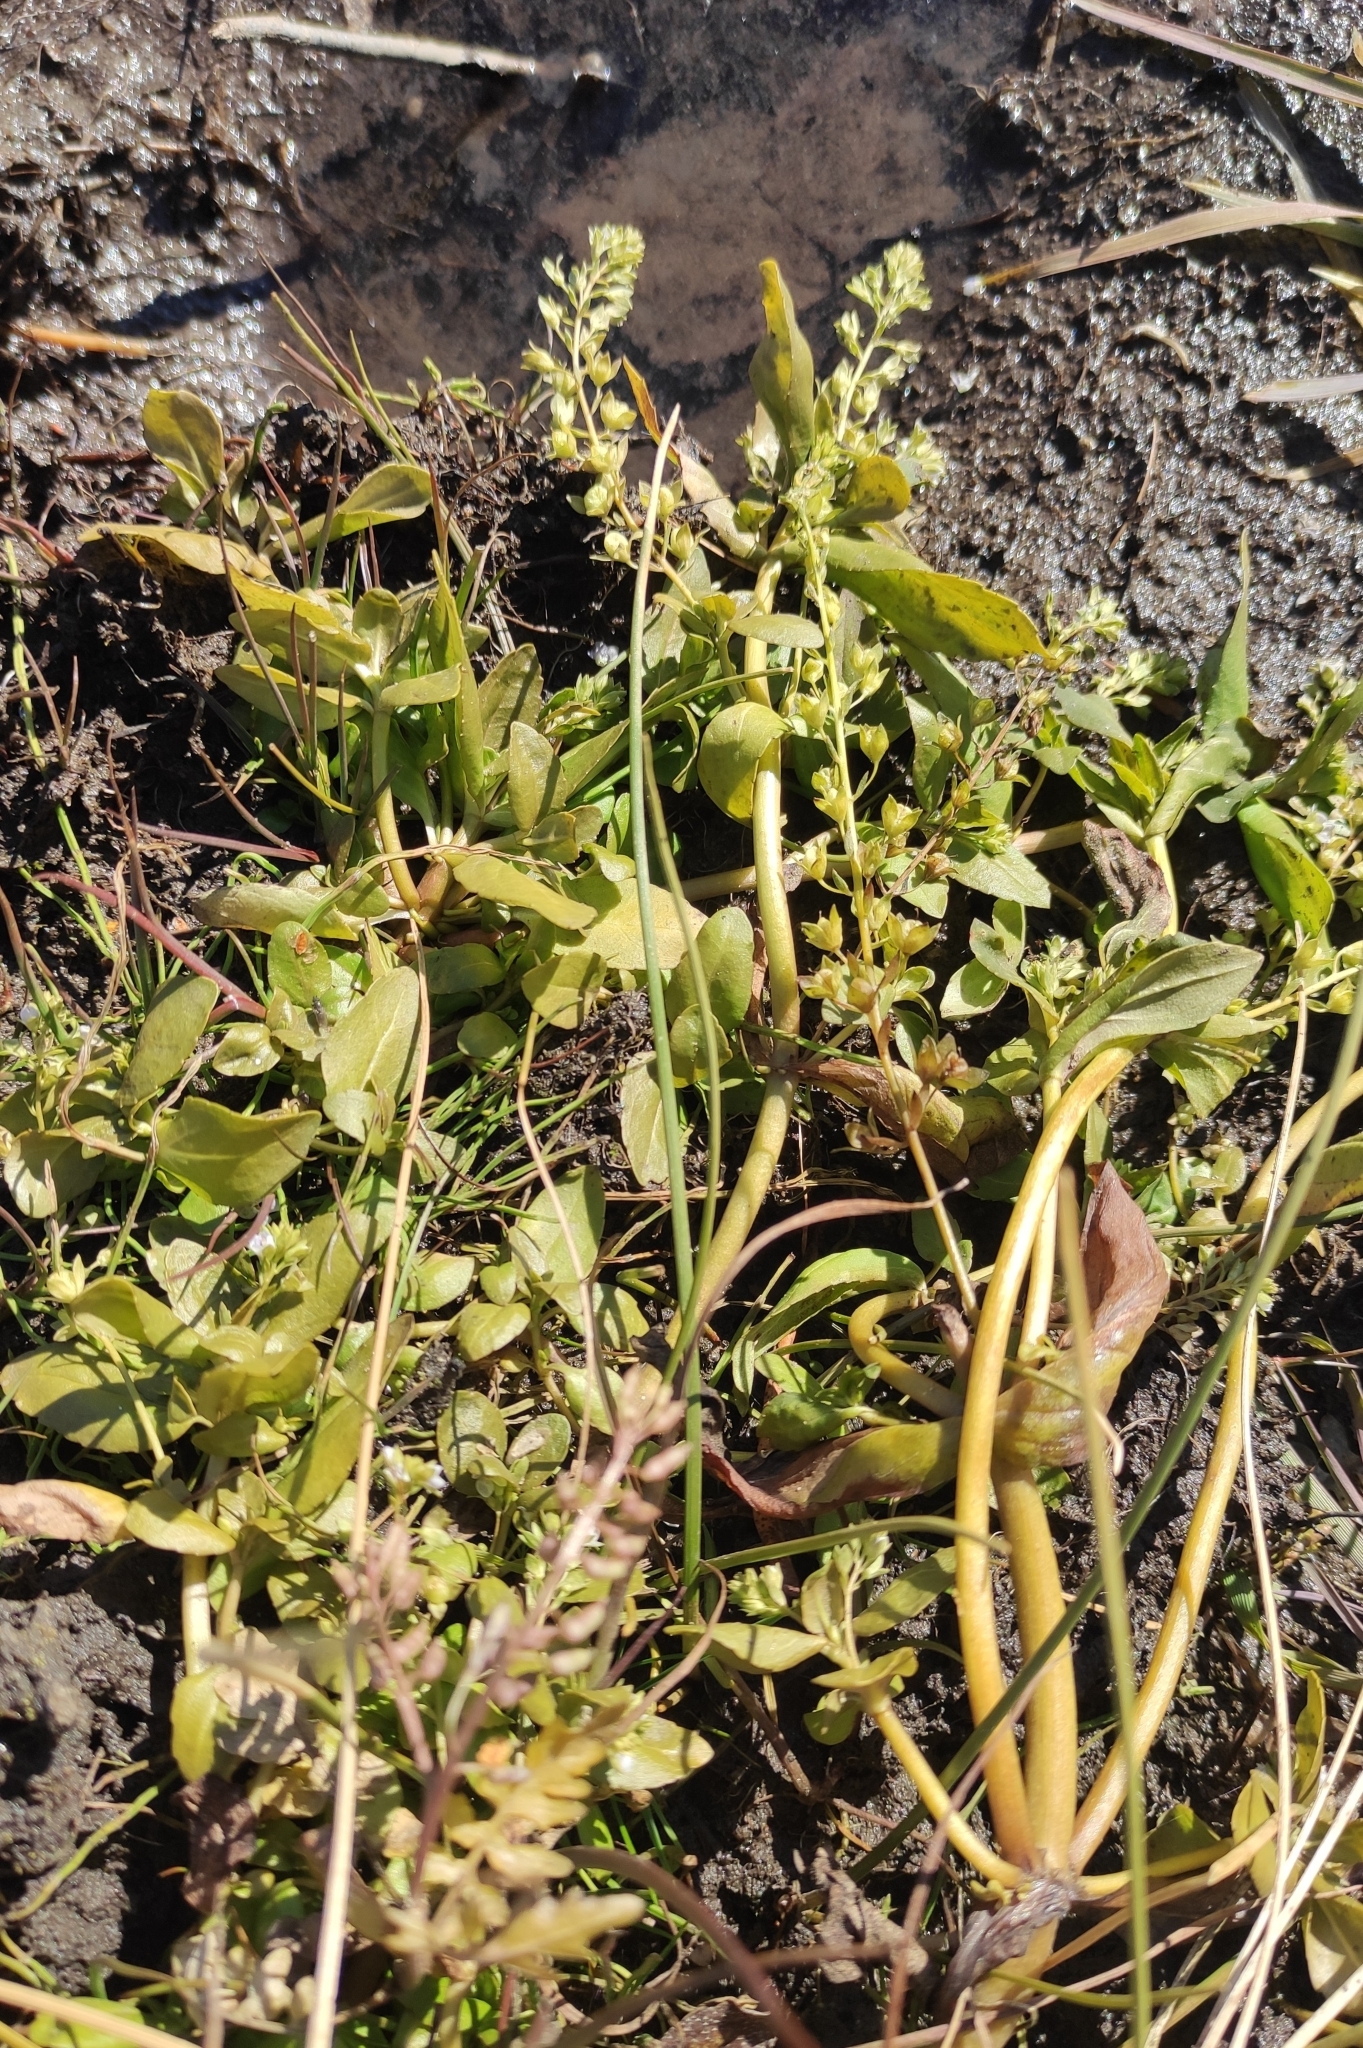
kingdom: Plantae
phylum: Tracheophyta
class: Magnoliopsida
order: Lamiales
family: Plantaginaceae
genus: Veronica
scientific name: Veronica anagallis-aquatica
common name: Water speedwell
